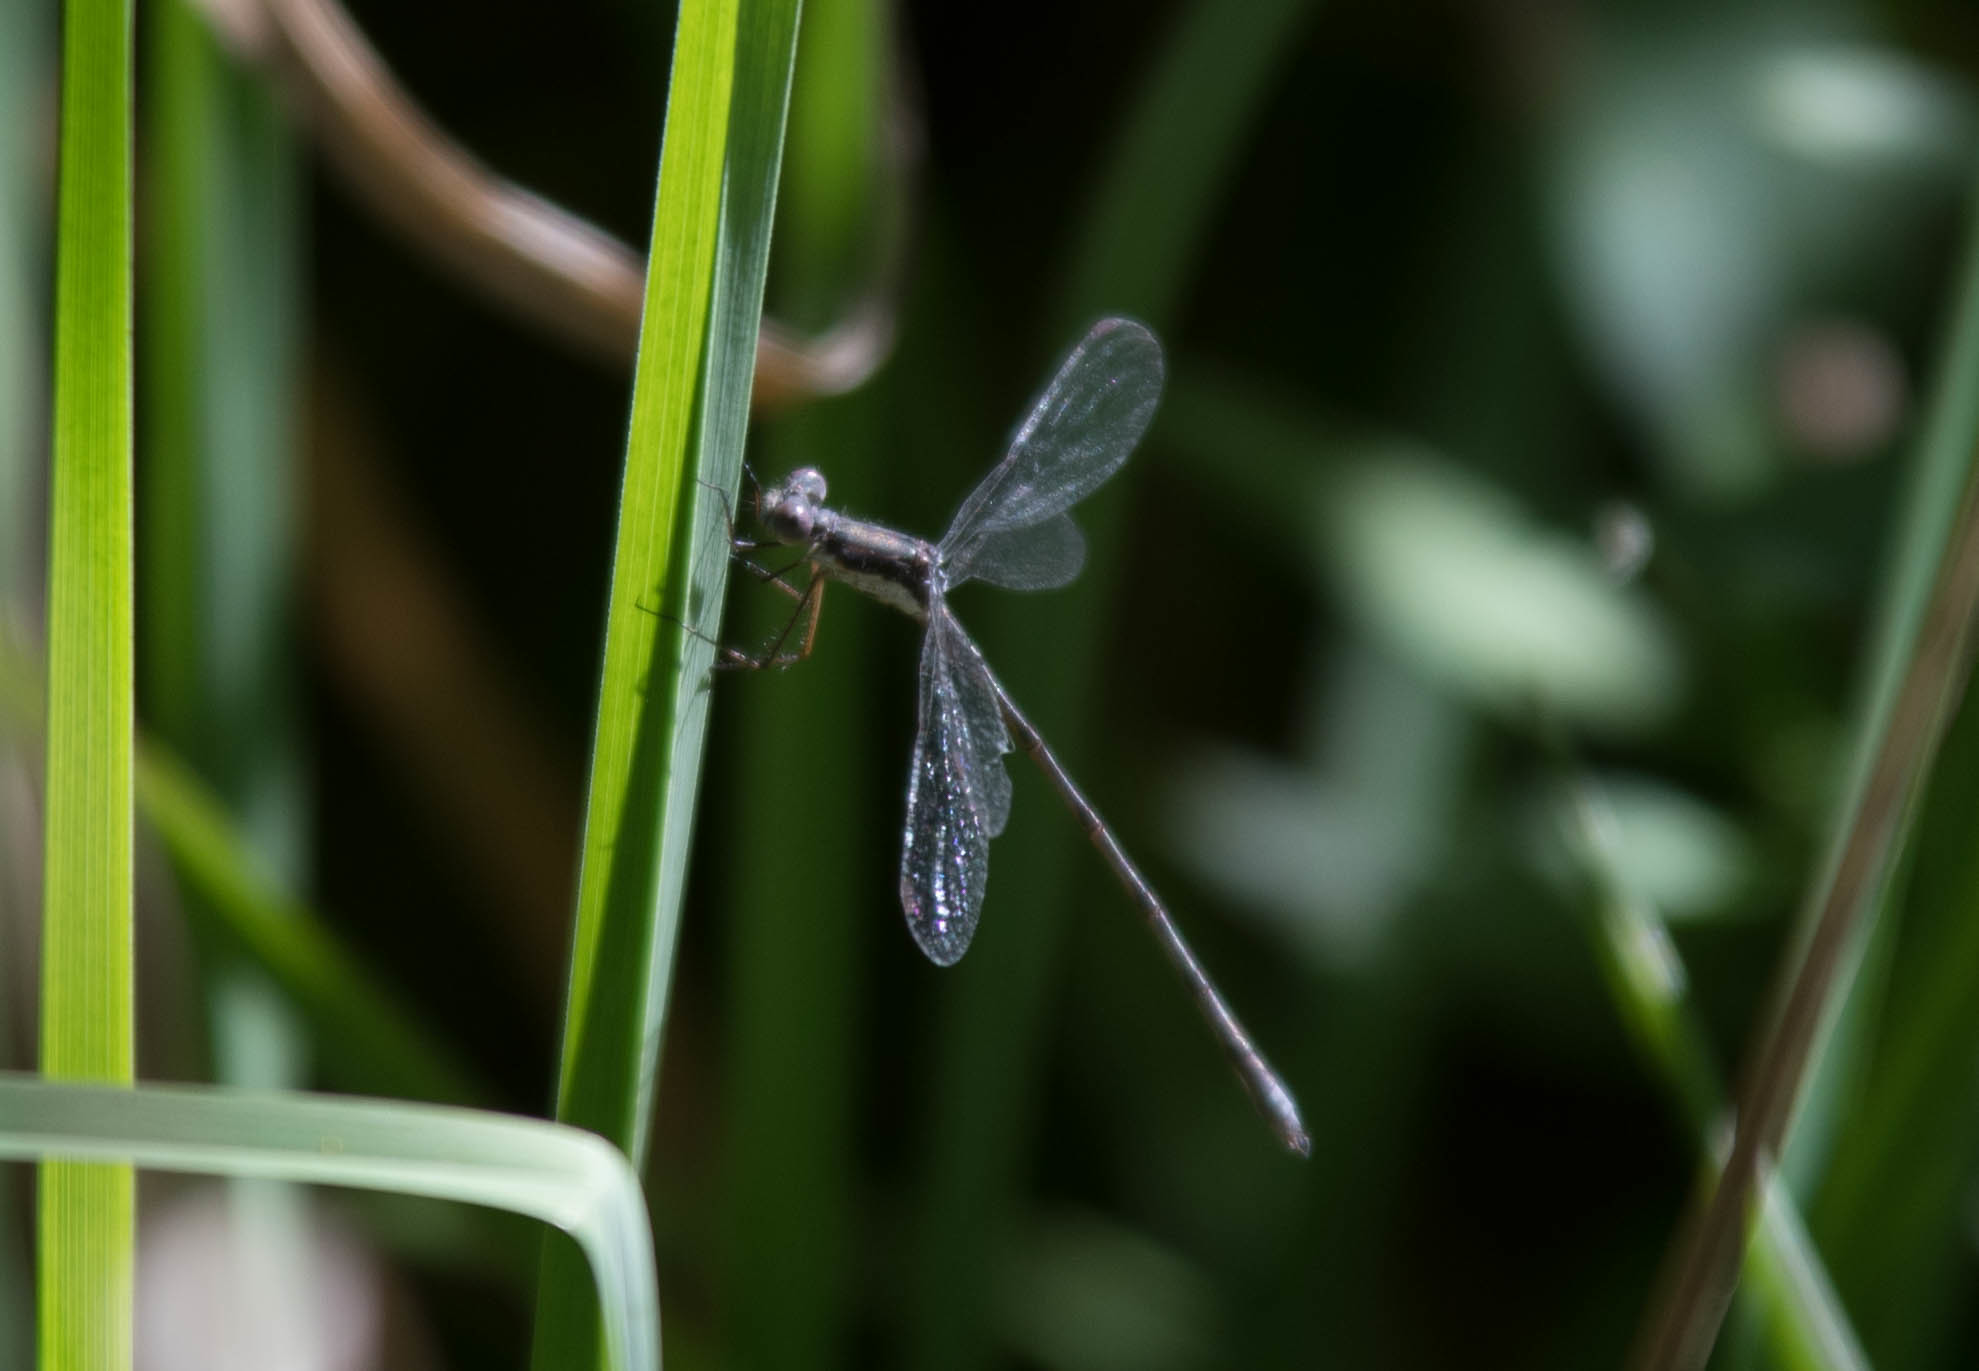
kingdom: Animalia
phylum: Arthropoda
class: Insecta
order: Odonata
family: Lestidae
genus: Lestes
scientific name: Lestes congener
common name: Spotted spreadwing
